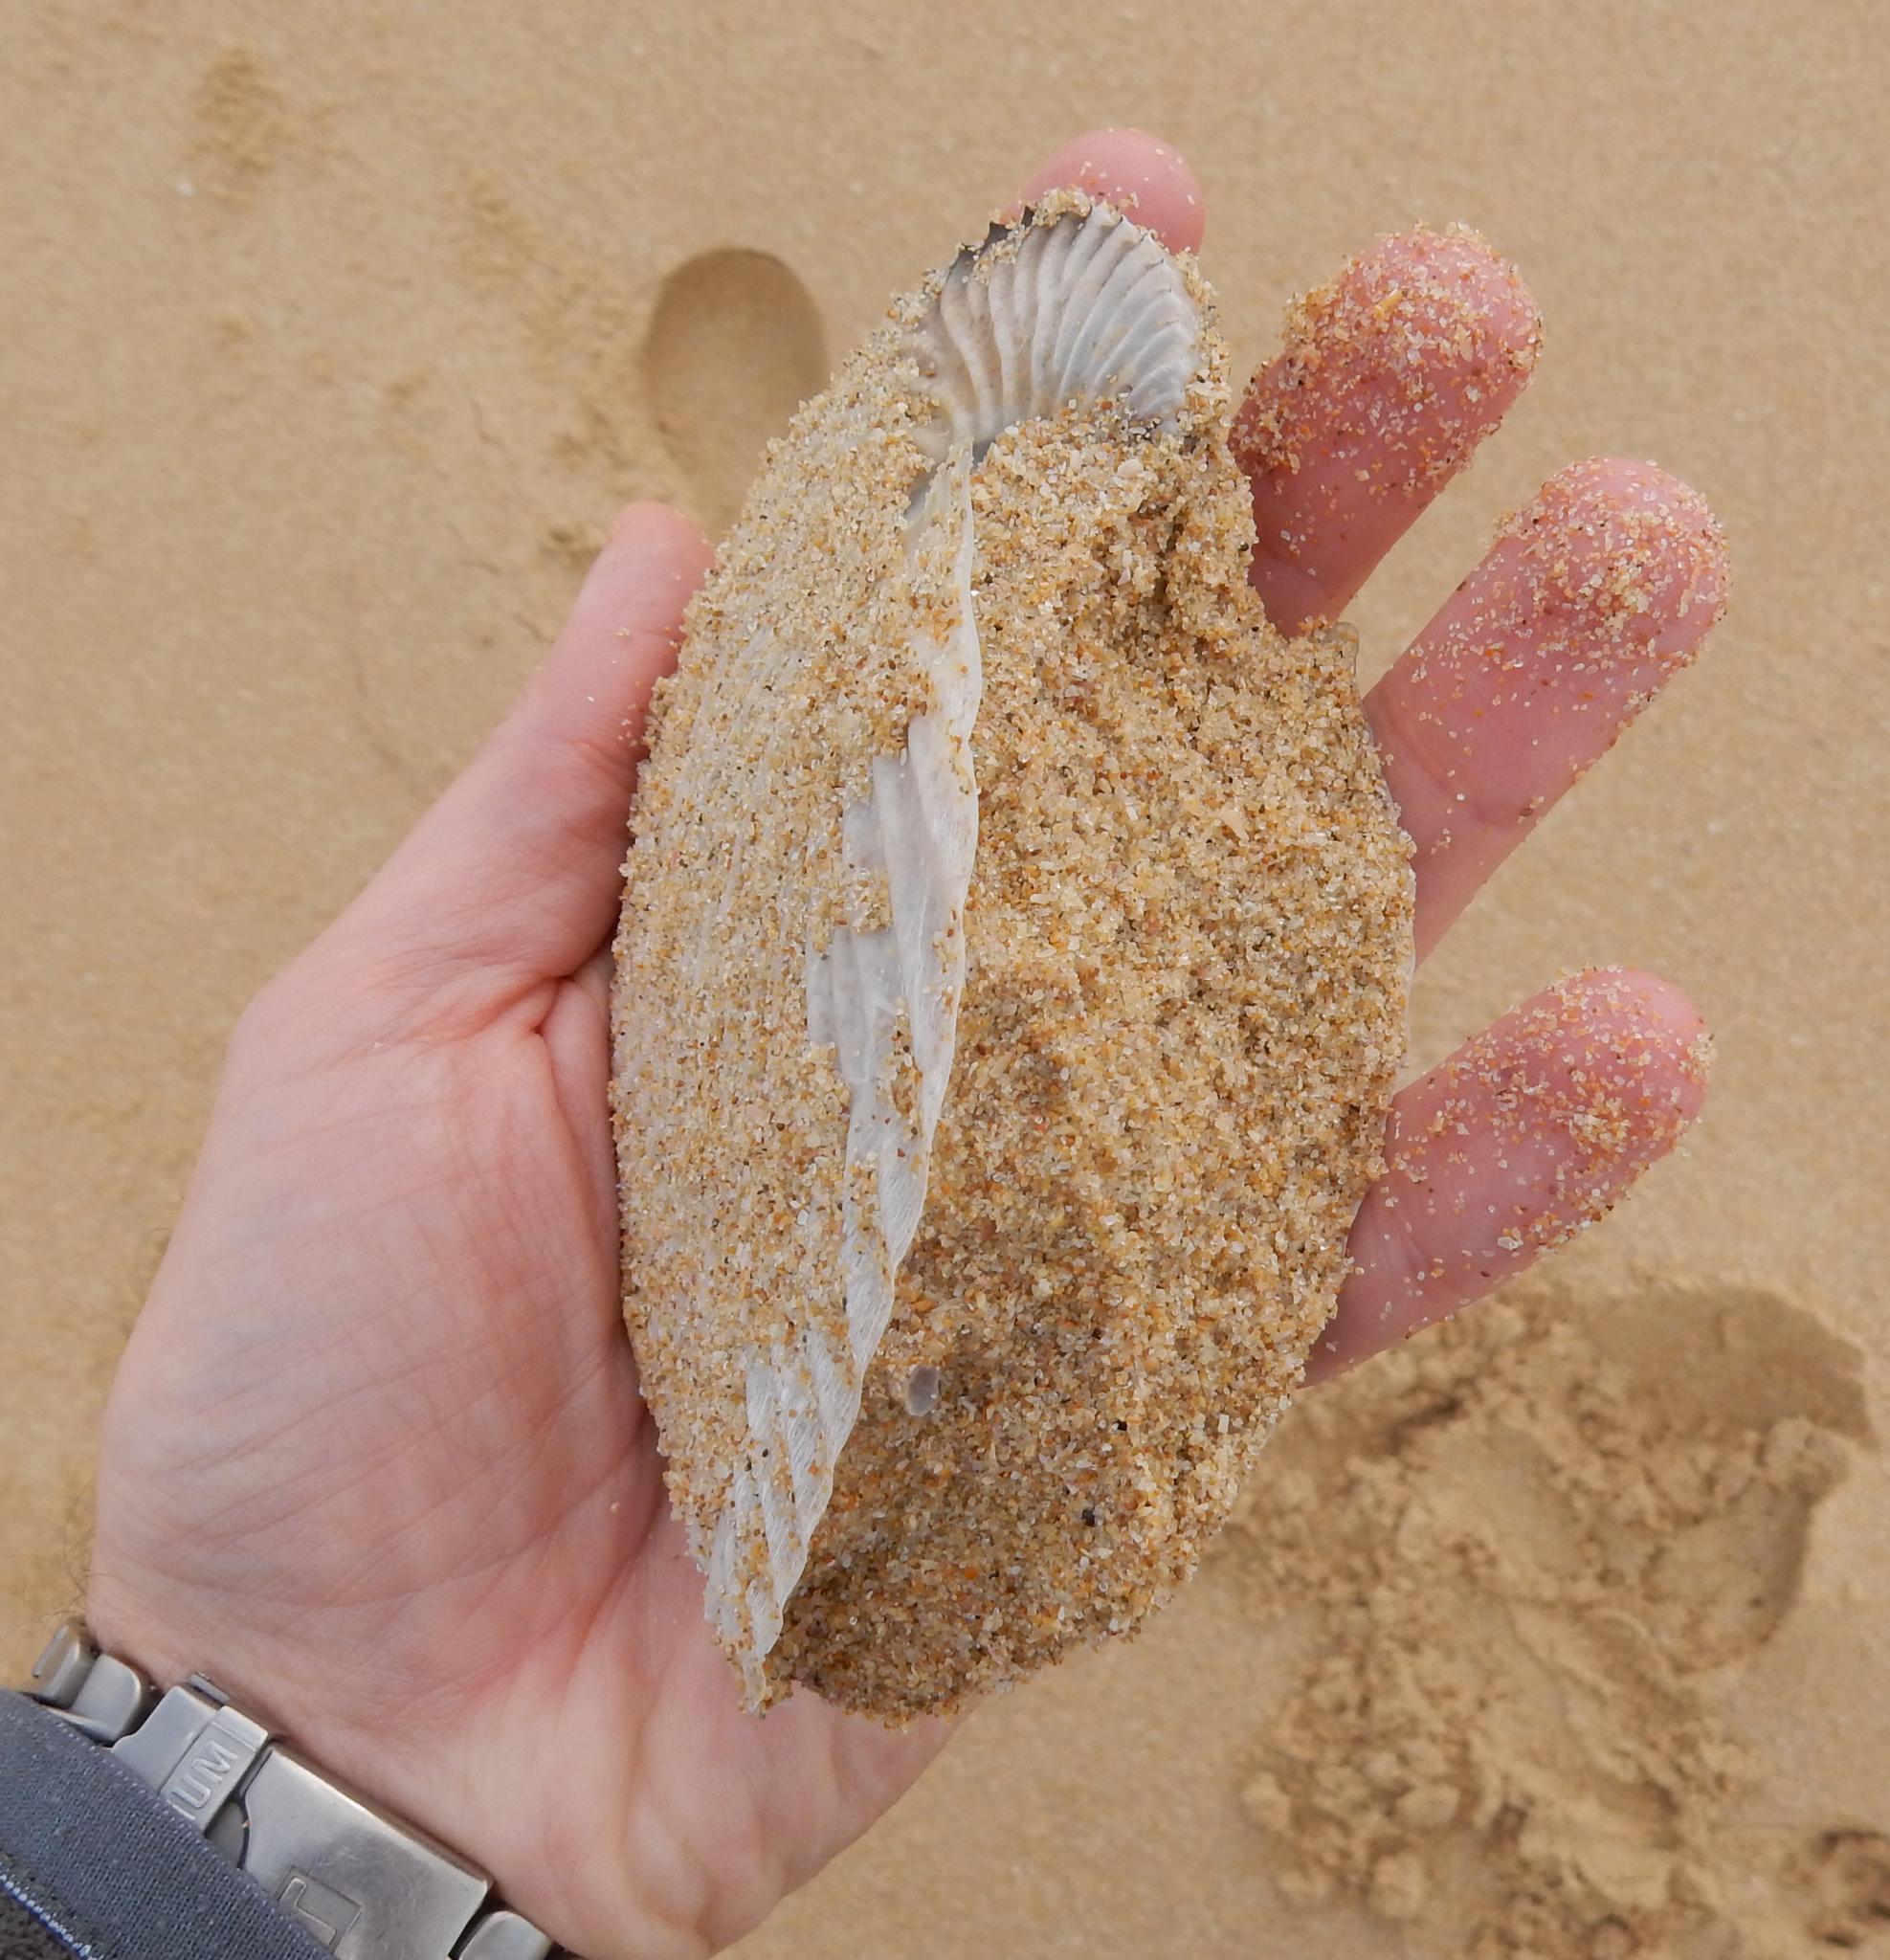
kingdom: Animalia
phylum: Mollusca
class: Cephalopoda
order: Octopoda
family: Argonautidae
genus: Argonauta
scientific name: Argonauta argo
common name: Common paper nautilus
